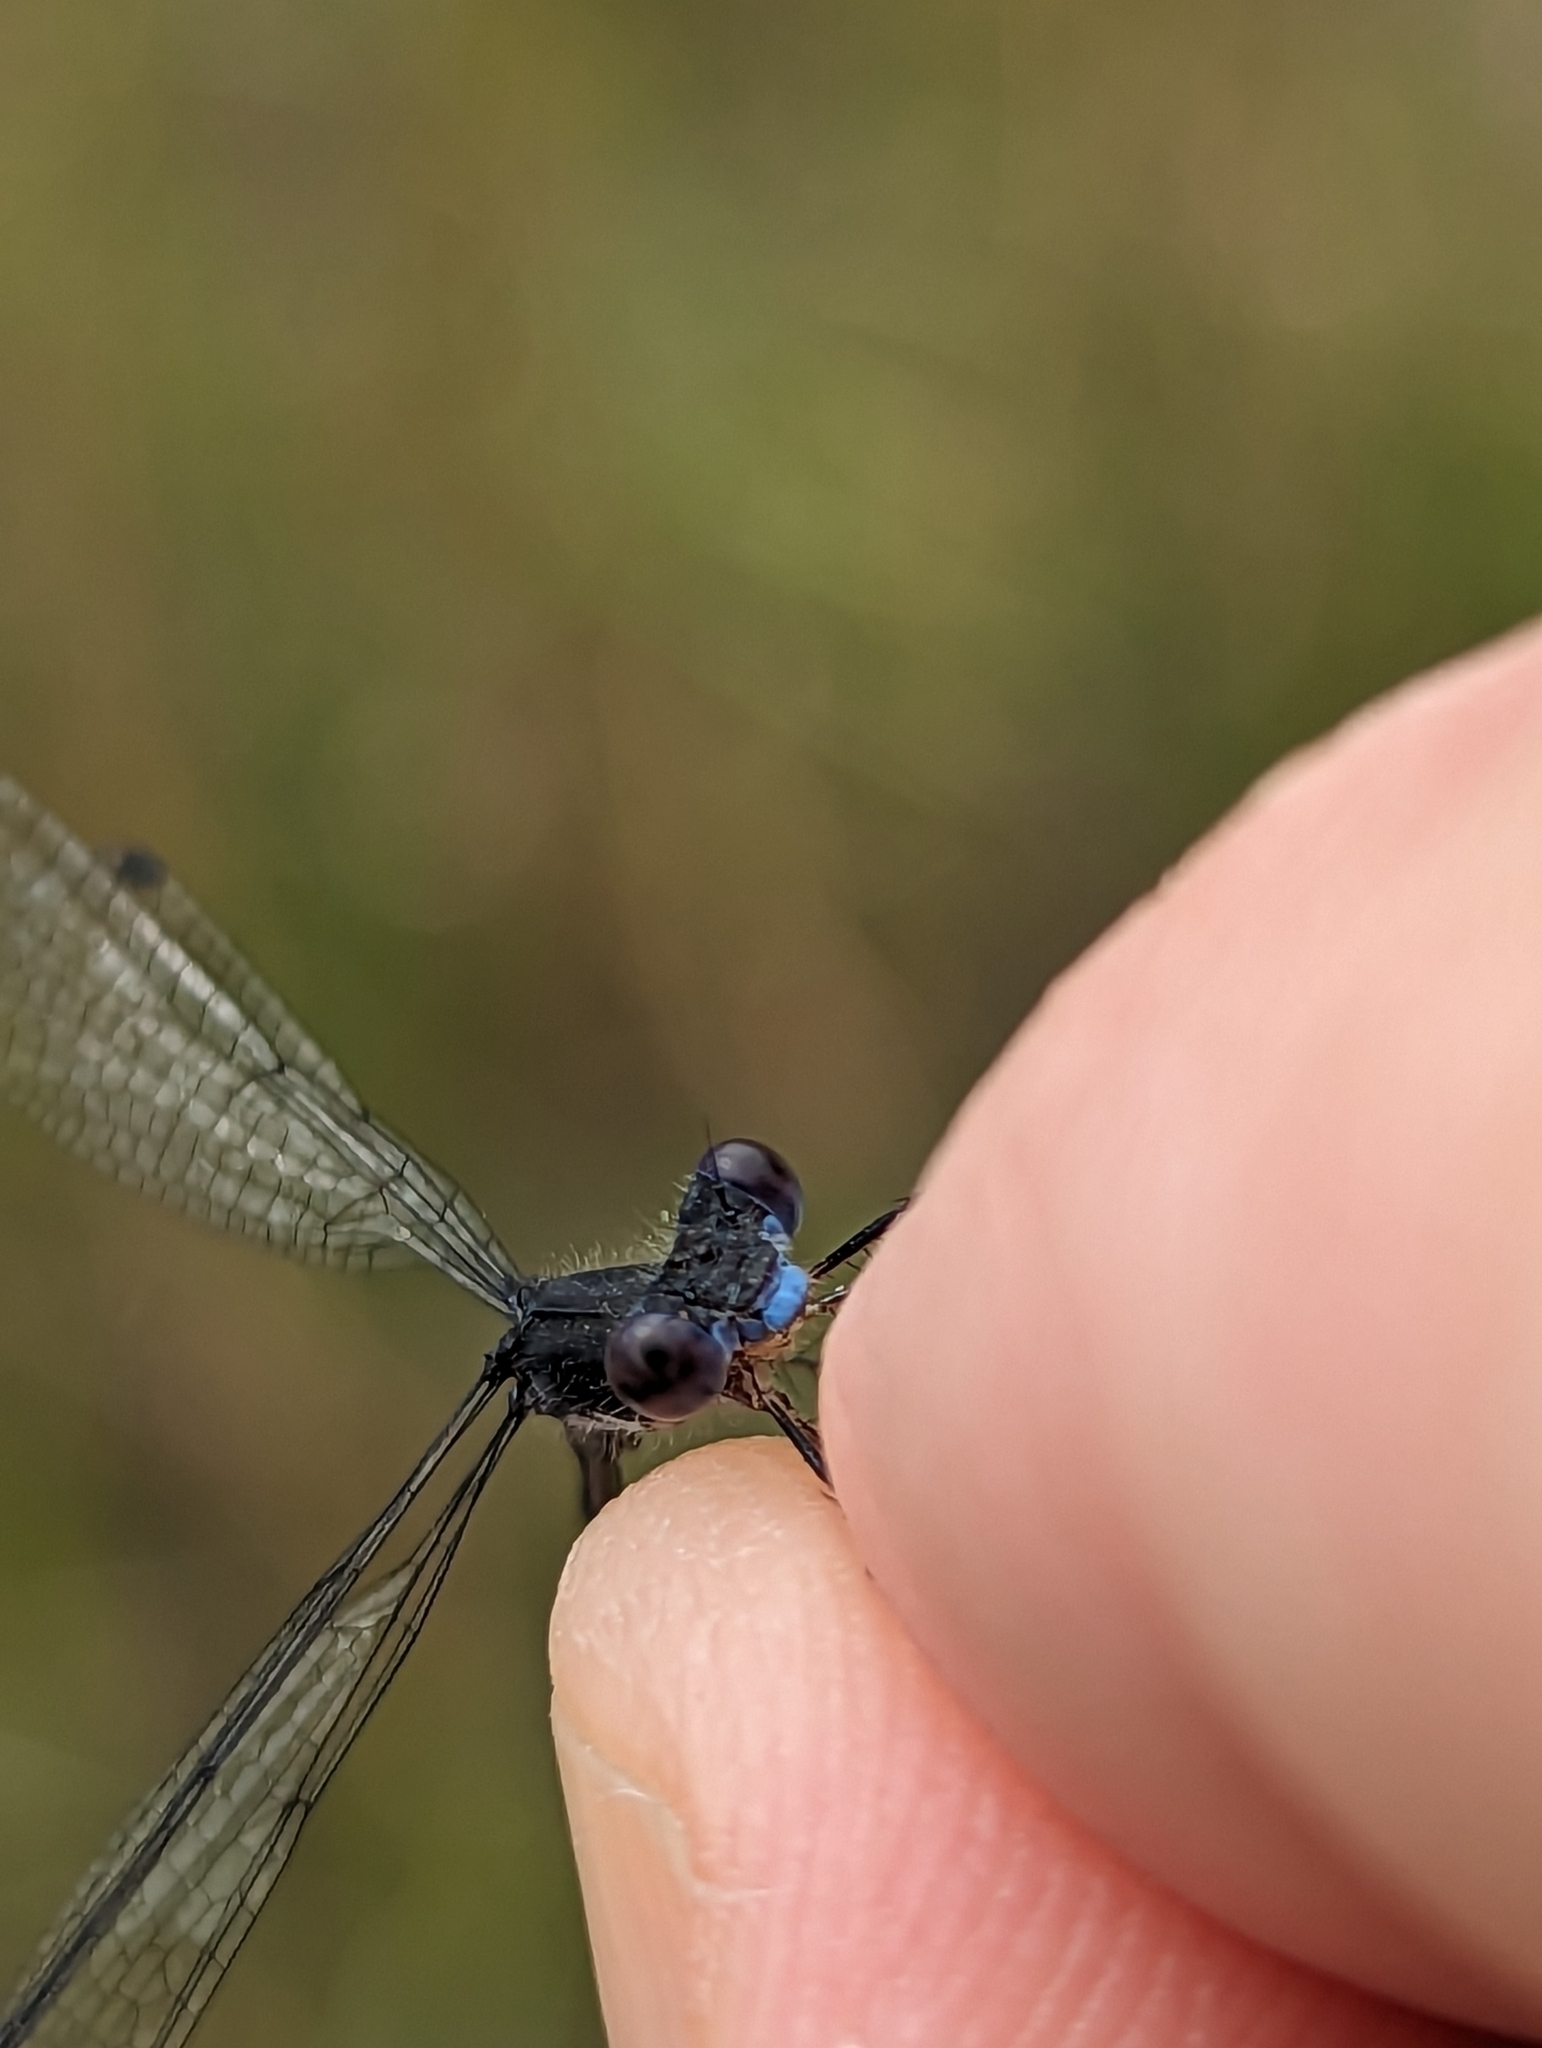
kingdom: Animalia
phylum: Arthropoda
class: Insecta
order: Odonata
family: Lestidae
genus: Lestes
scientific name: Lestes congener
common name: Spotted spreadwing
